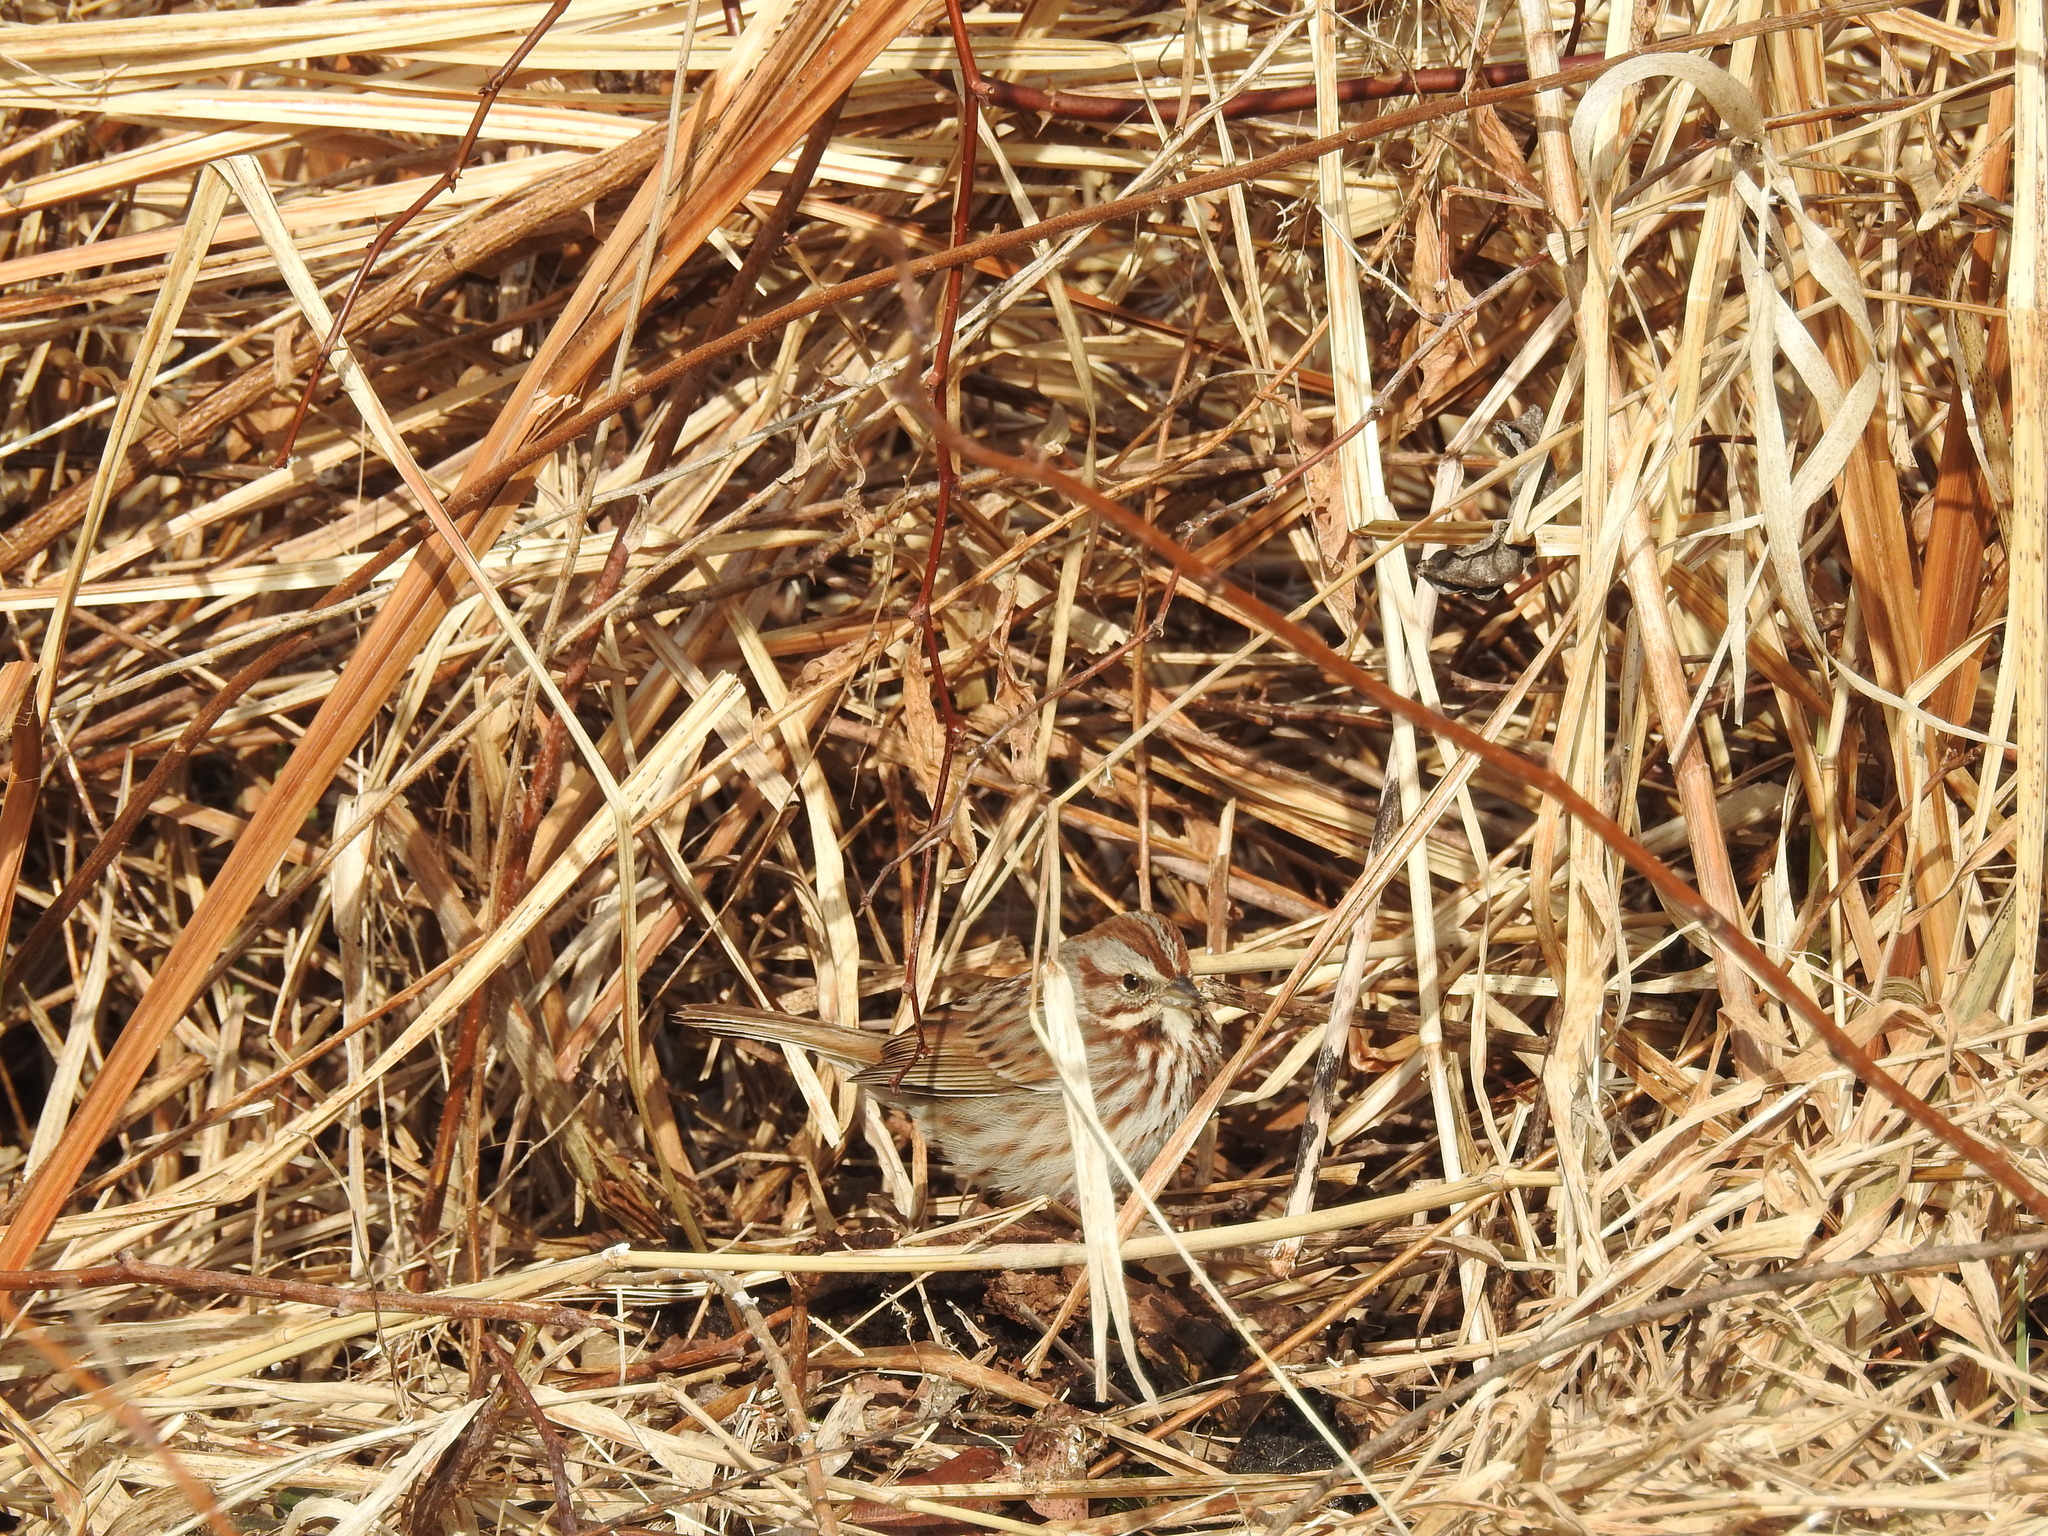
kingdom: Animalia
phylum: Chordata
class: Aves
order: Passeriformes
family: Passerellidae
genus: Melospiza
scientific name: Melospiza melodia
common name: Song sparrow
